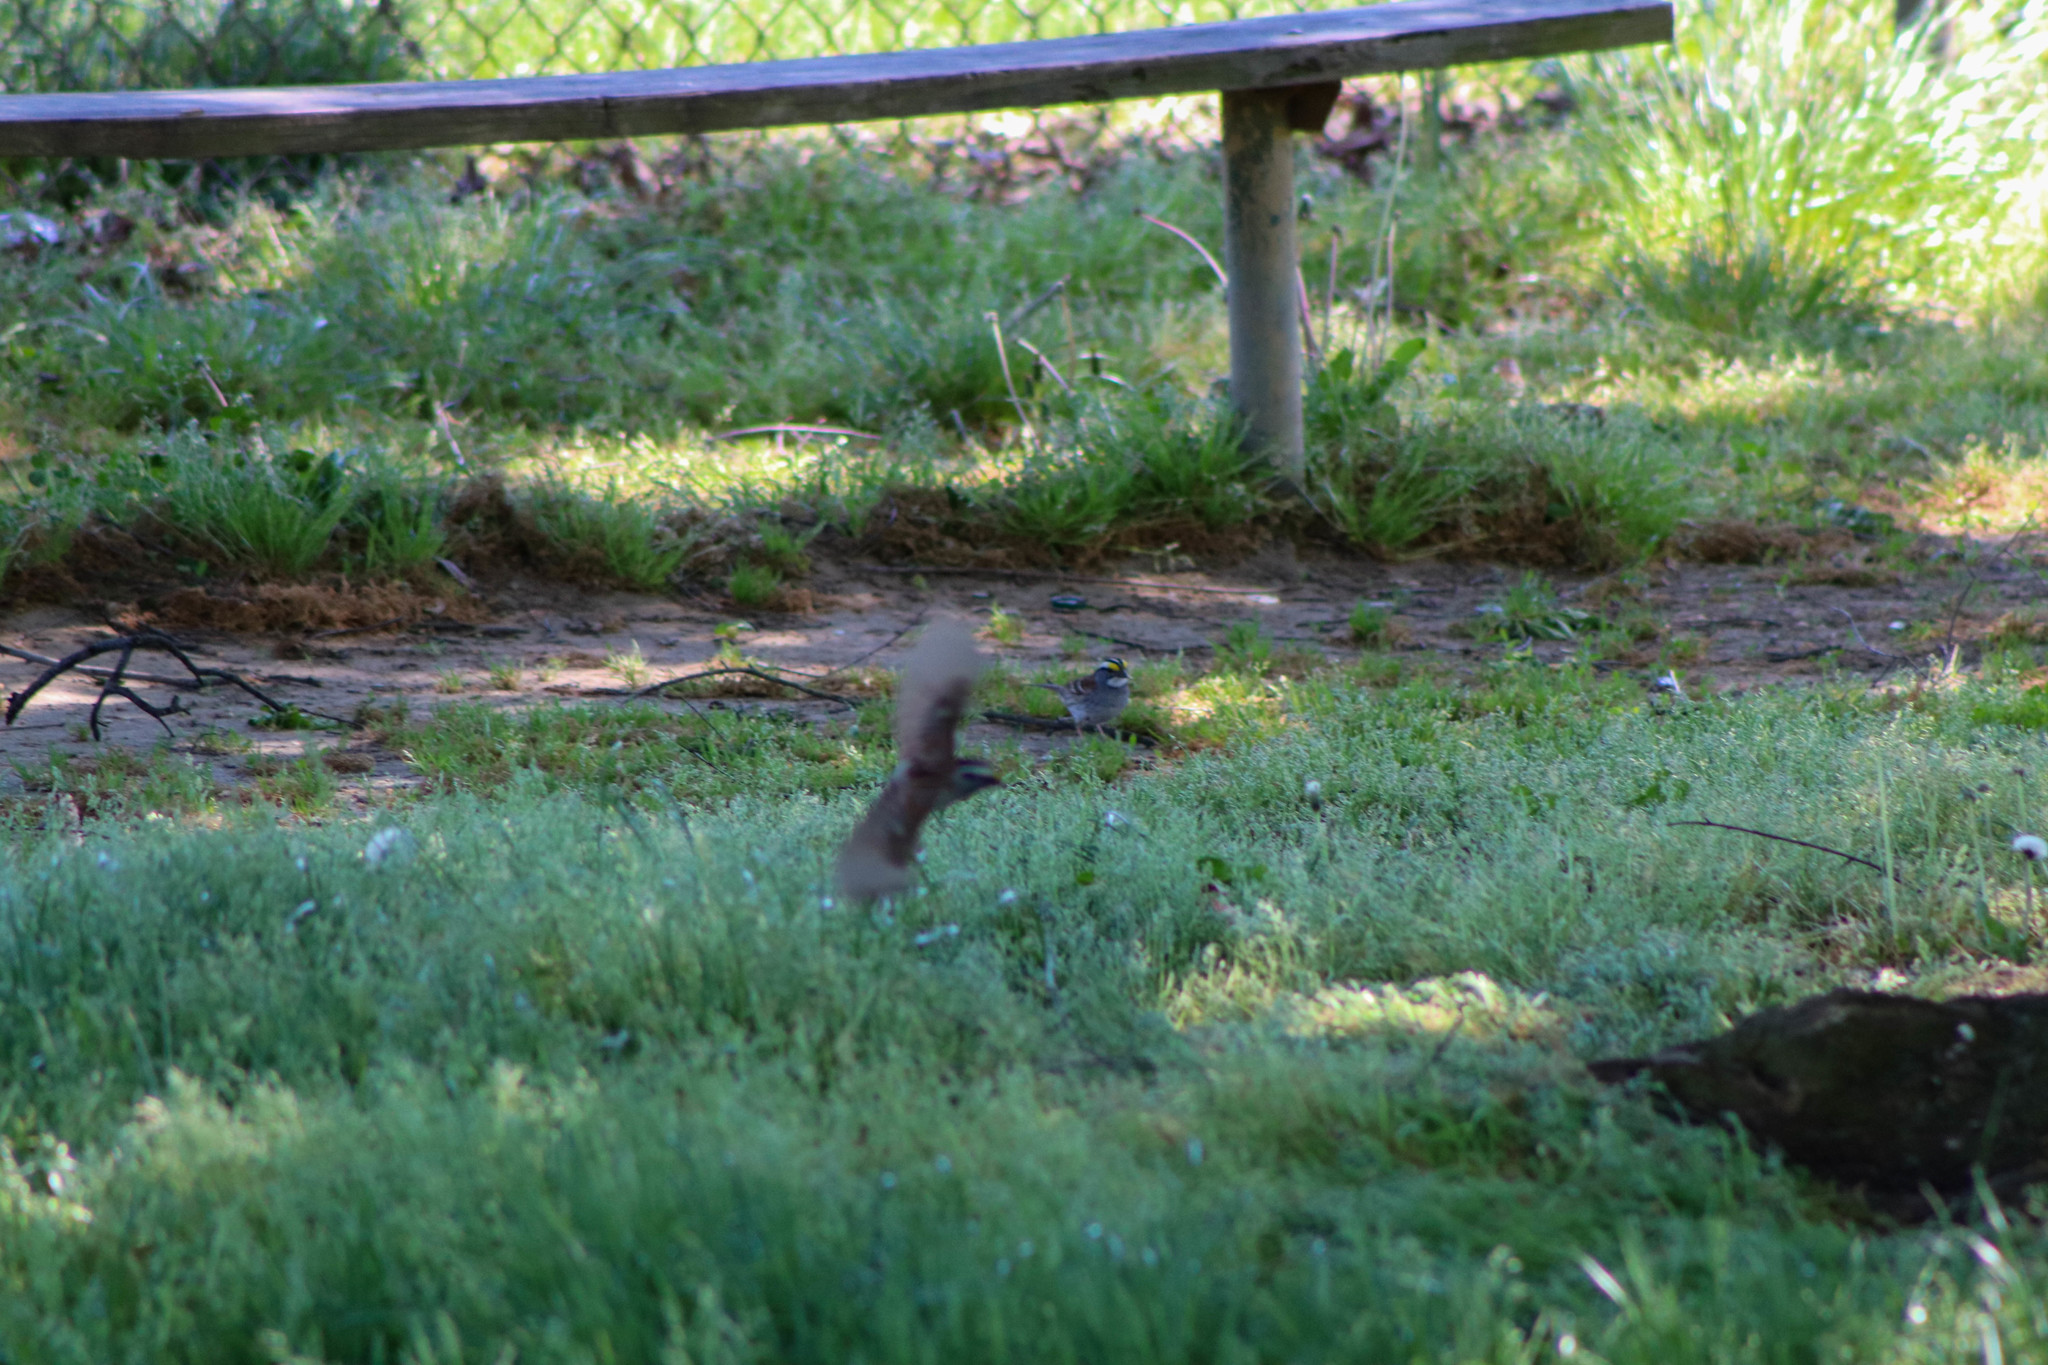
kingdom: Animalia
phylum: Chordata
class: Aves
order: Passeriformes
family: Passerellidae
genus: Zonotrichia
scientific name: Zonotrichia albicollis
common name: White-throated sparrow
